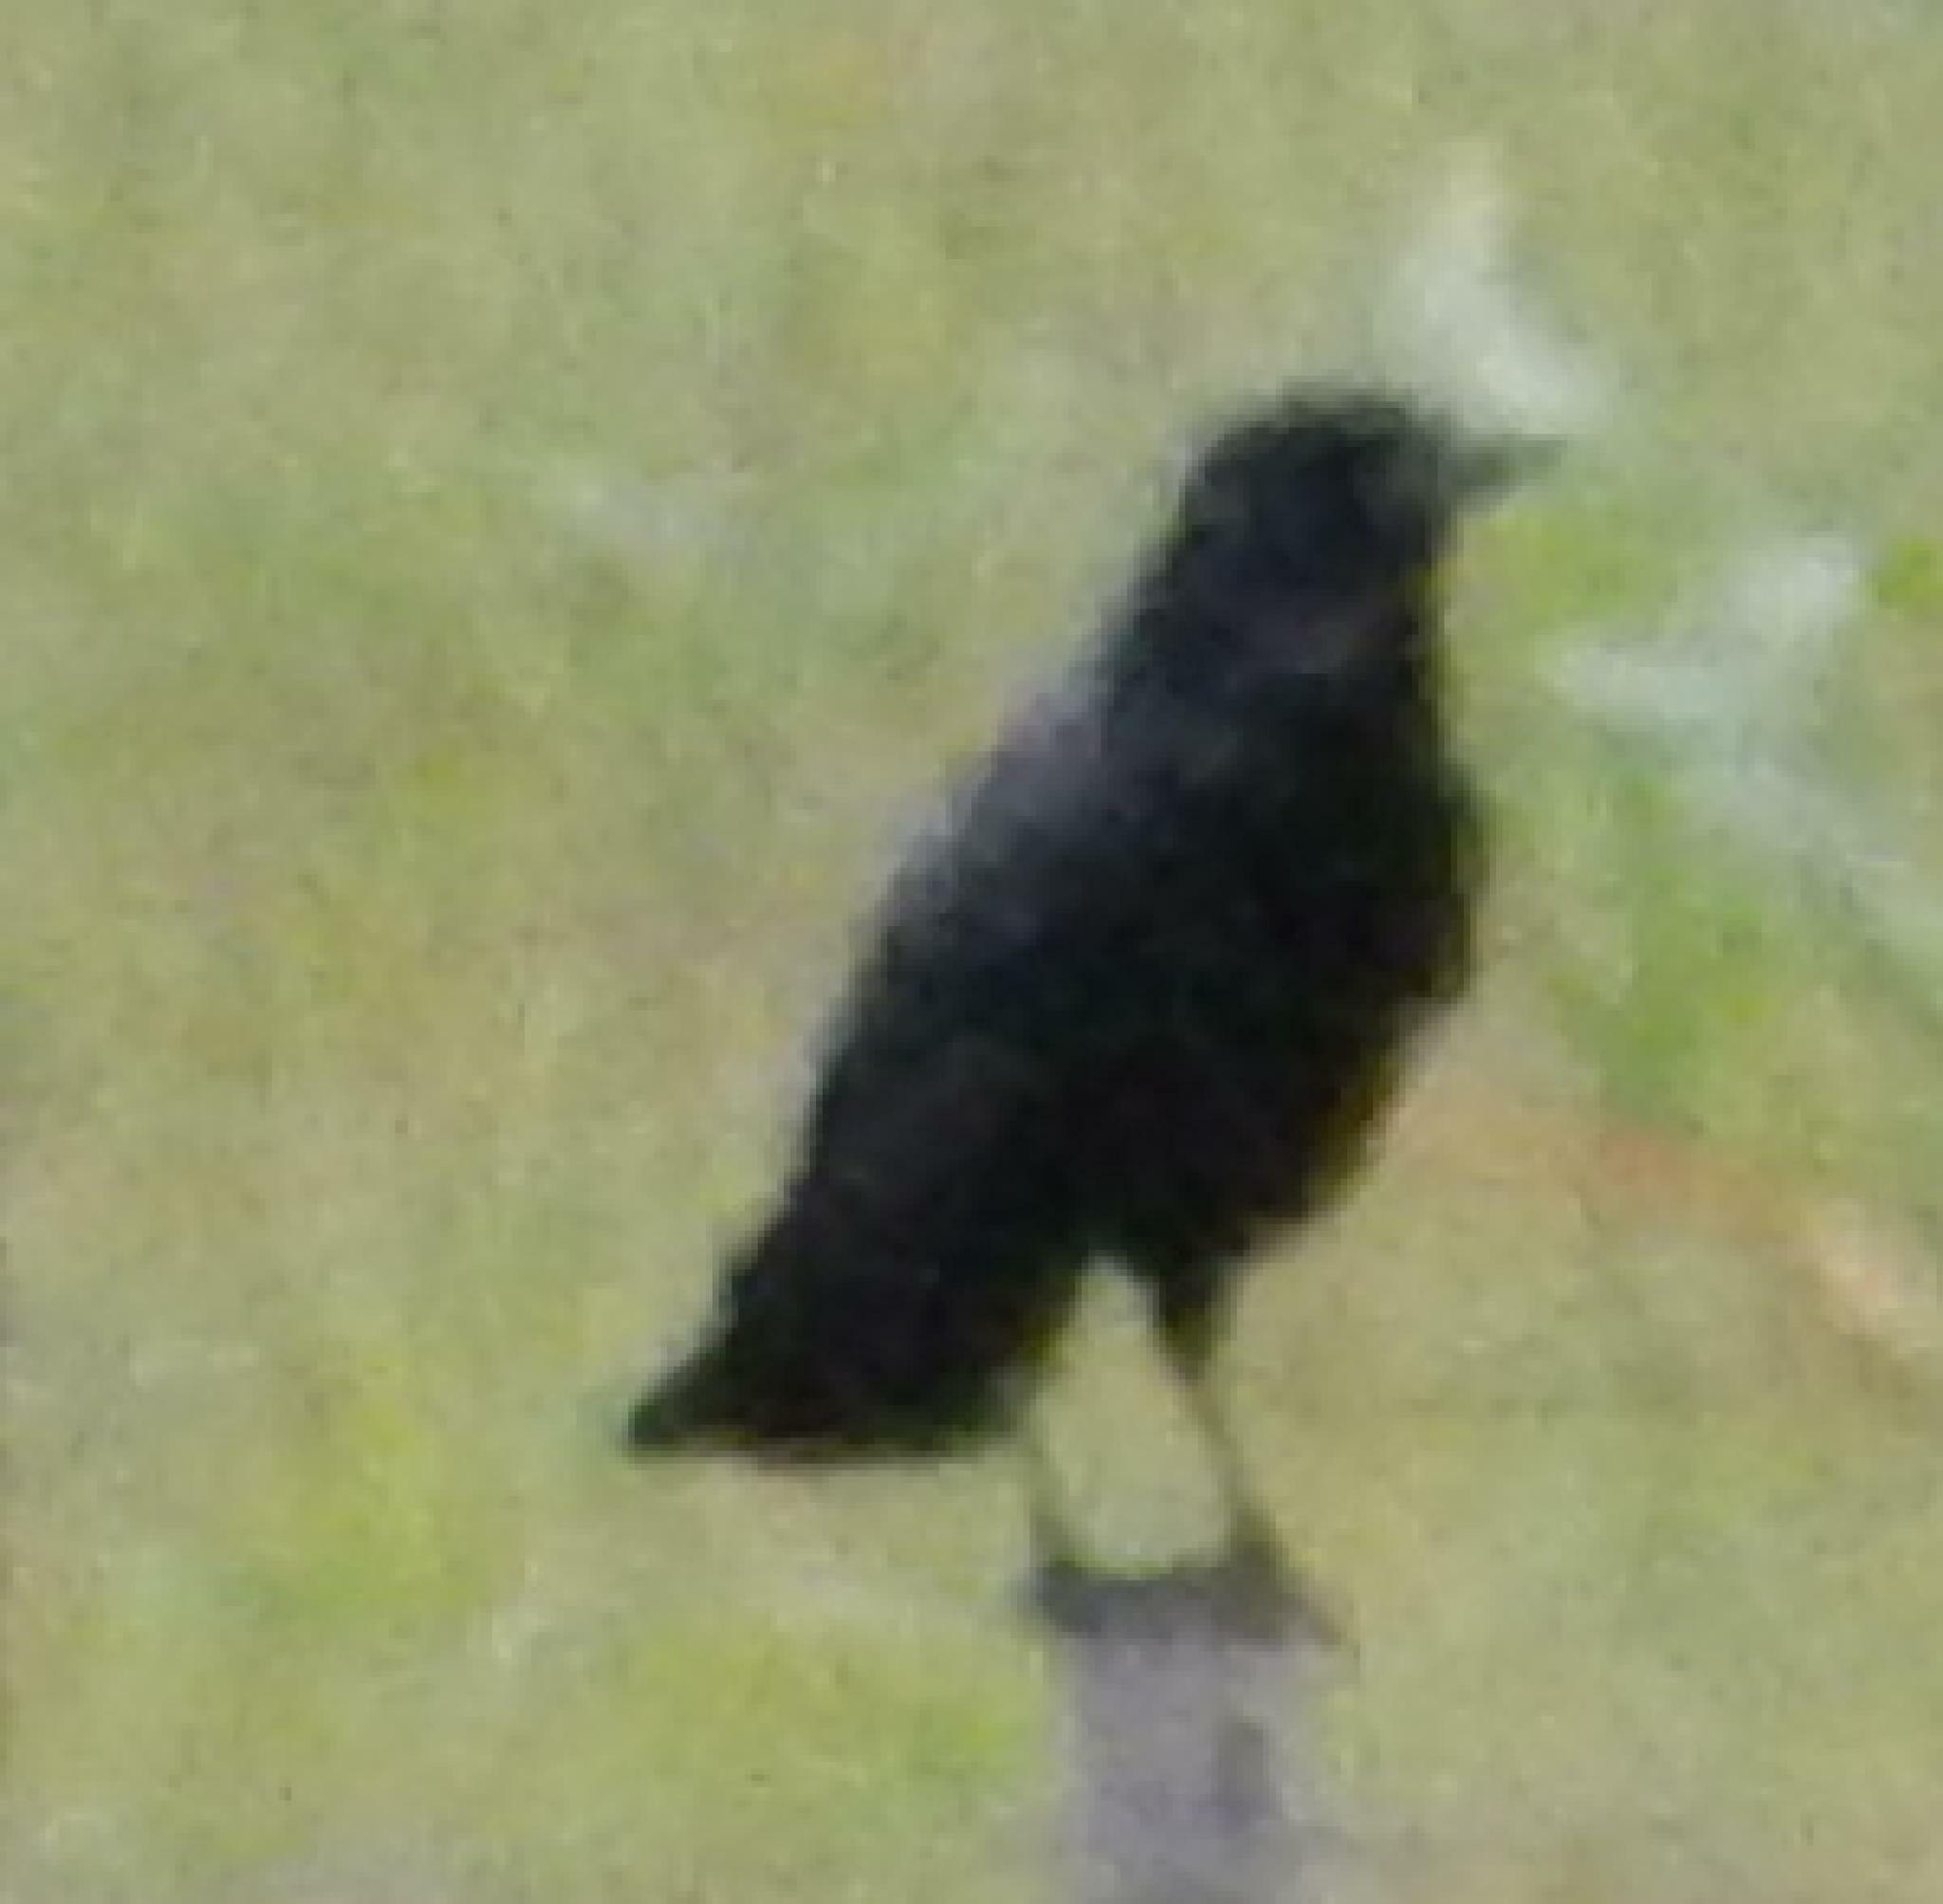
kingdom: Animalia
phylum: Chordata
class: Aves
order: Passeriformes
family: Corvidae
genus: Corvus
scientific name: Corvus capensis
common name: Cape crow
